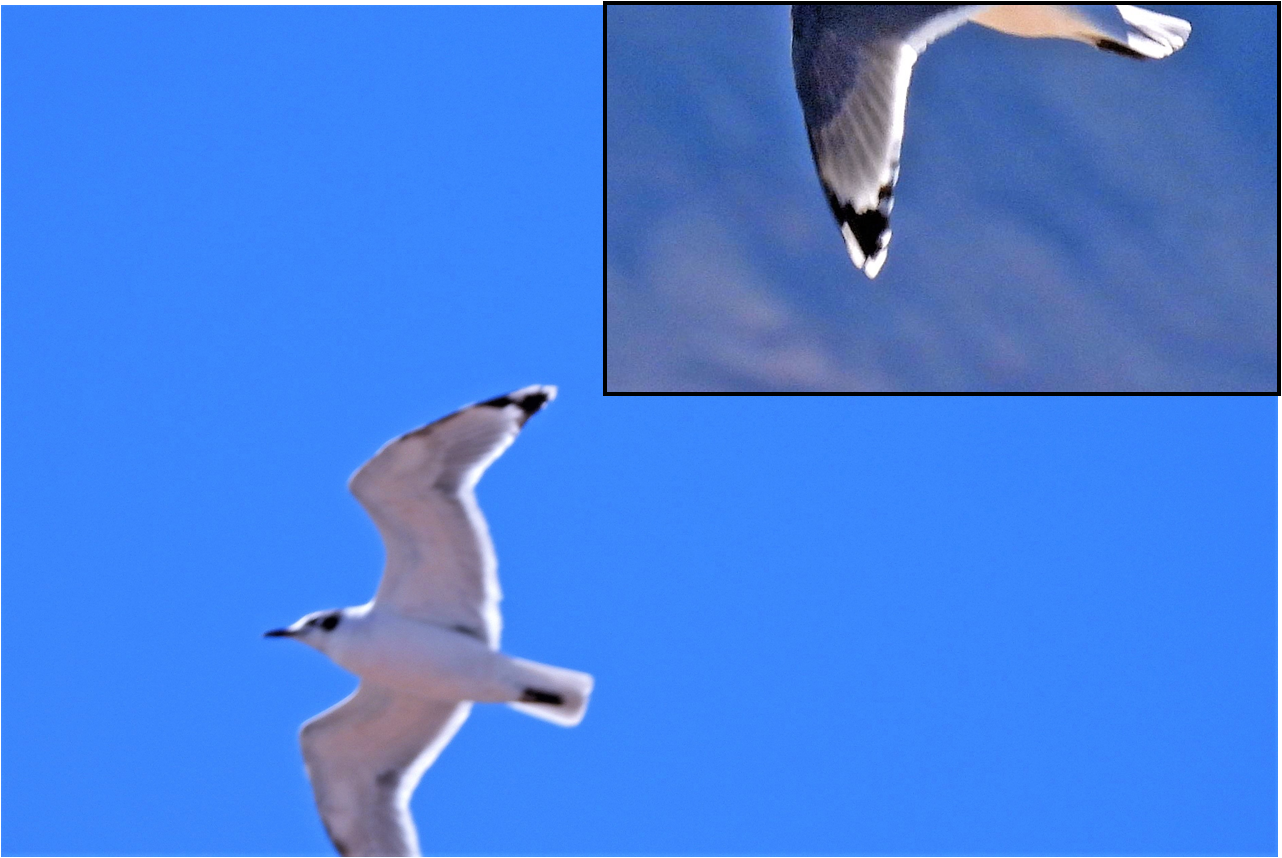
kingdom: Animalia
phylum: Chordata
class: Aves
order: Charadriiformes
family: Laridae
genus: Leucophaeus
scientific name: Leucophaeus pipixcan
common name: Franklin's gull
